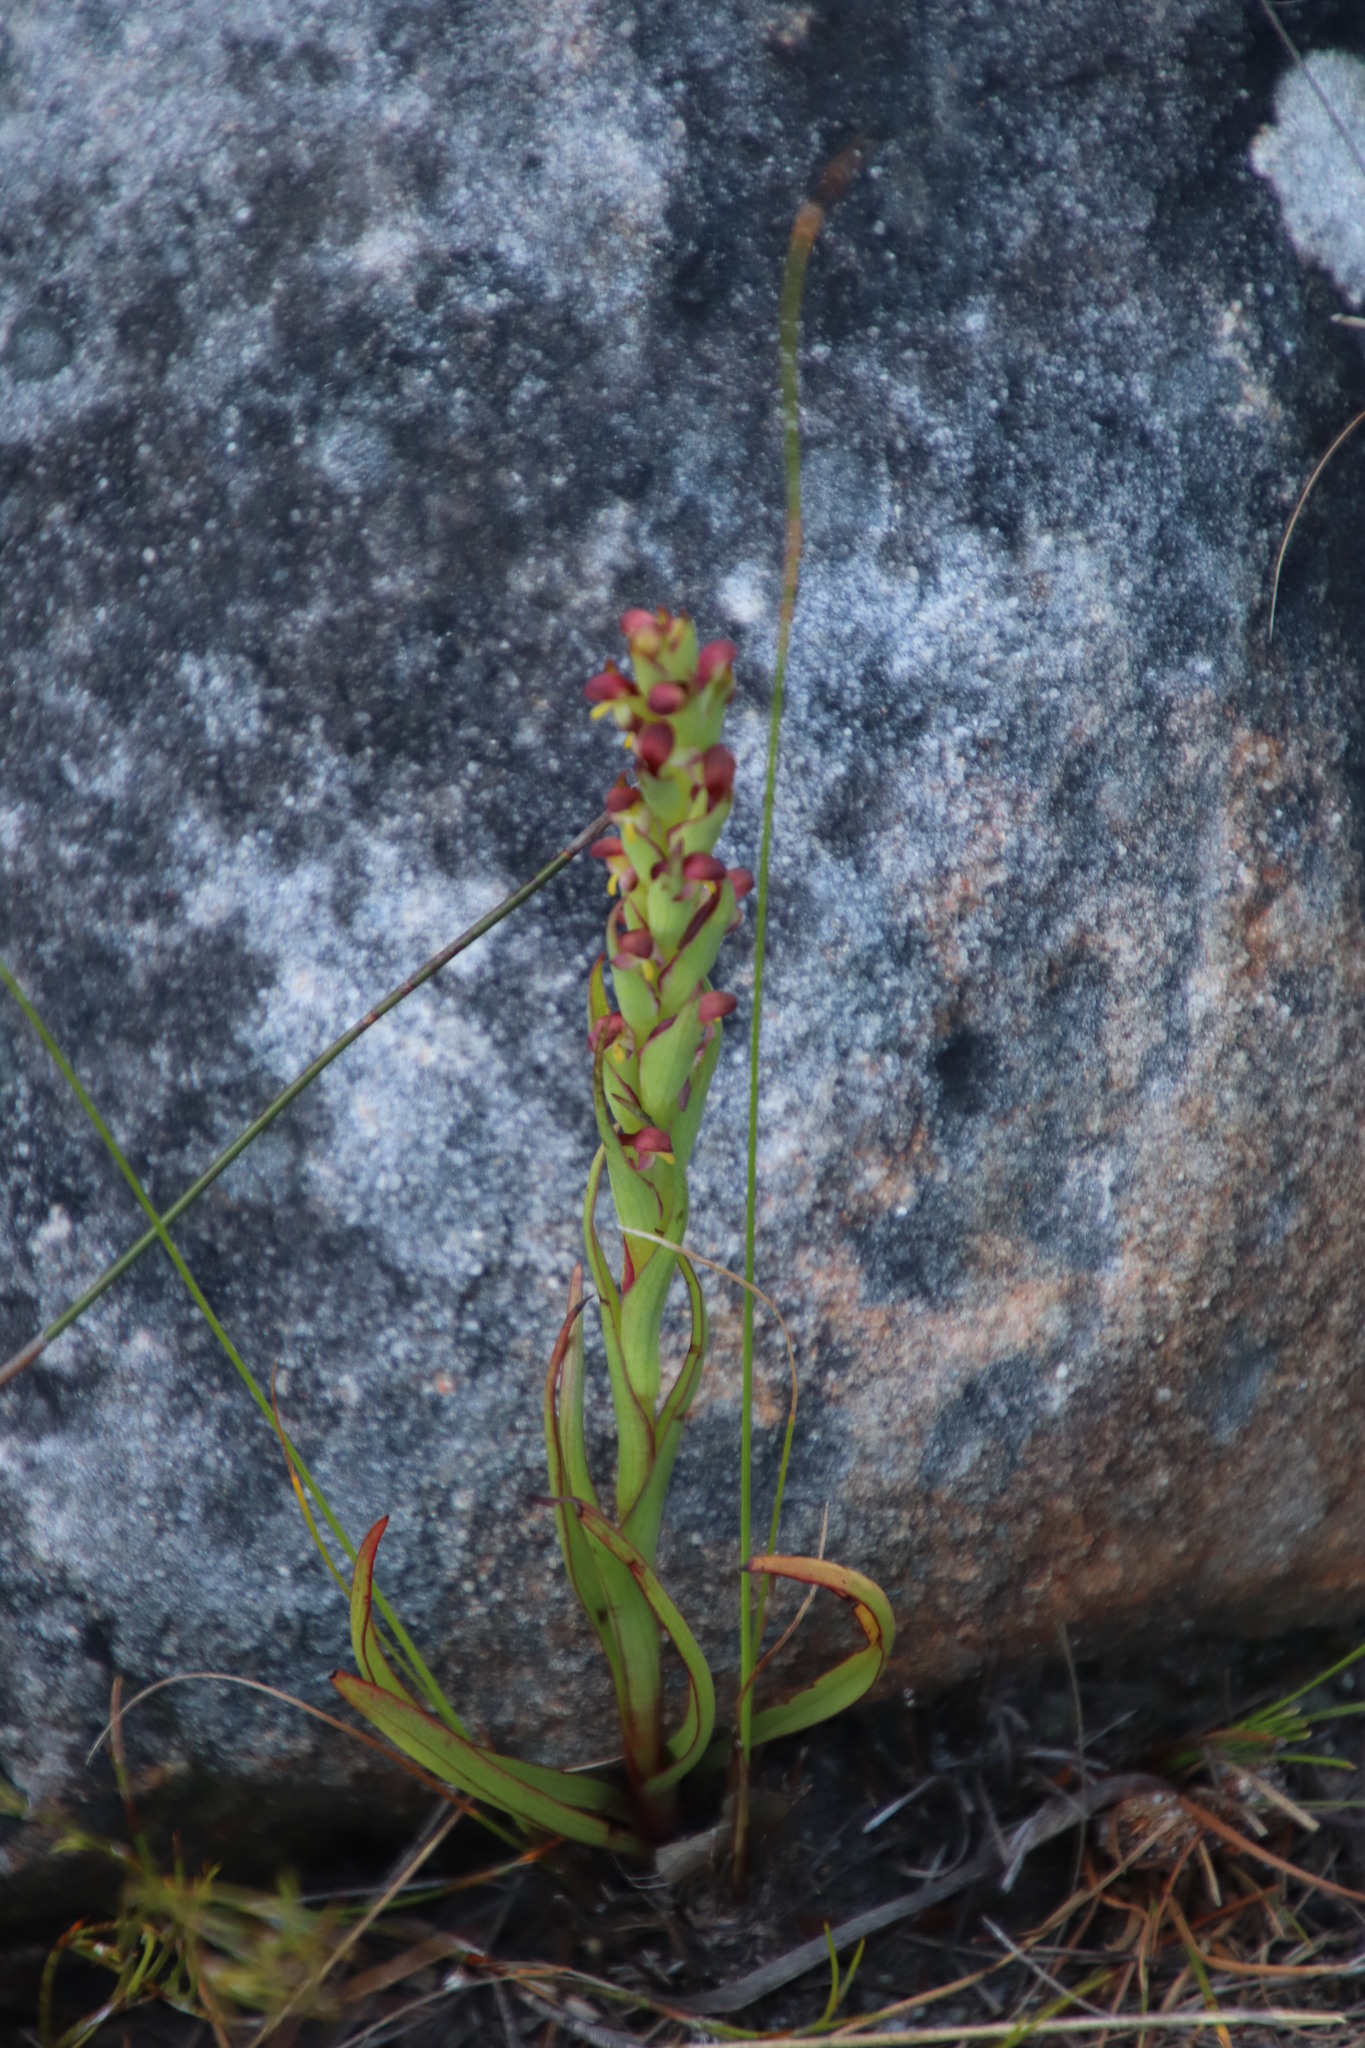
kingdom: Plantae
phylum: Tracheophyta
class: Liliopsida
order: Asparagales
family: Orchidaceae
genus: Disa
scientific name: Disa bracteata
